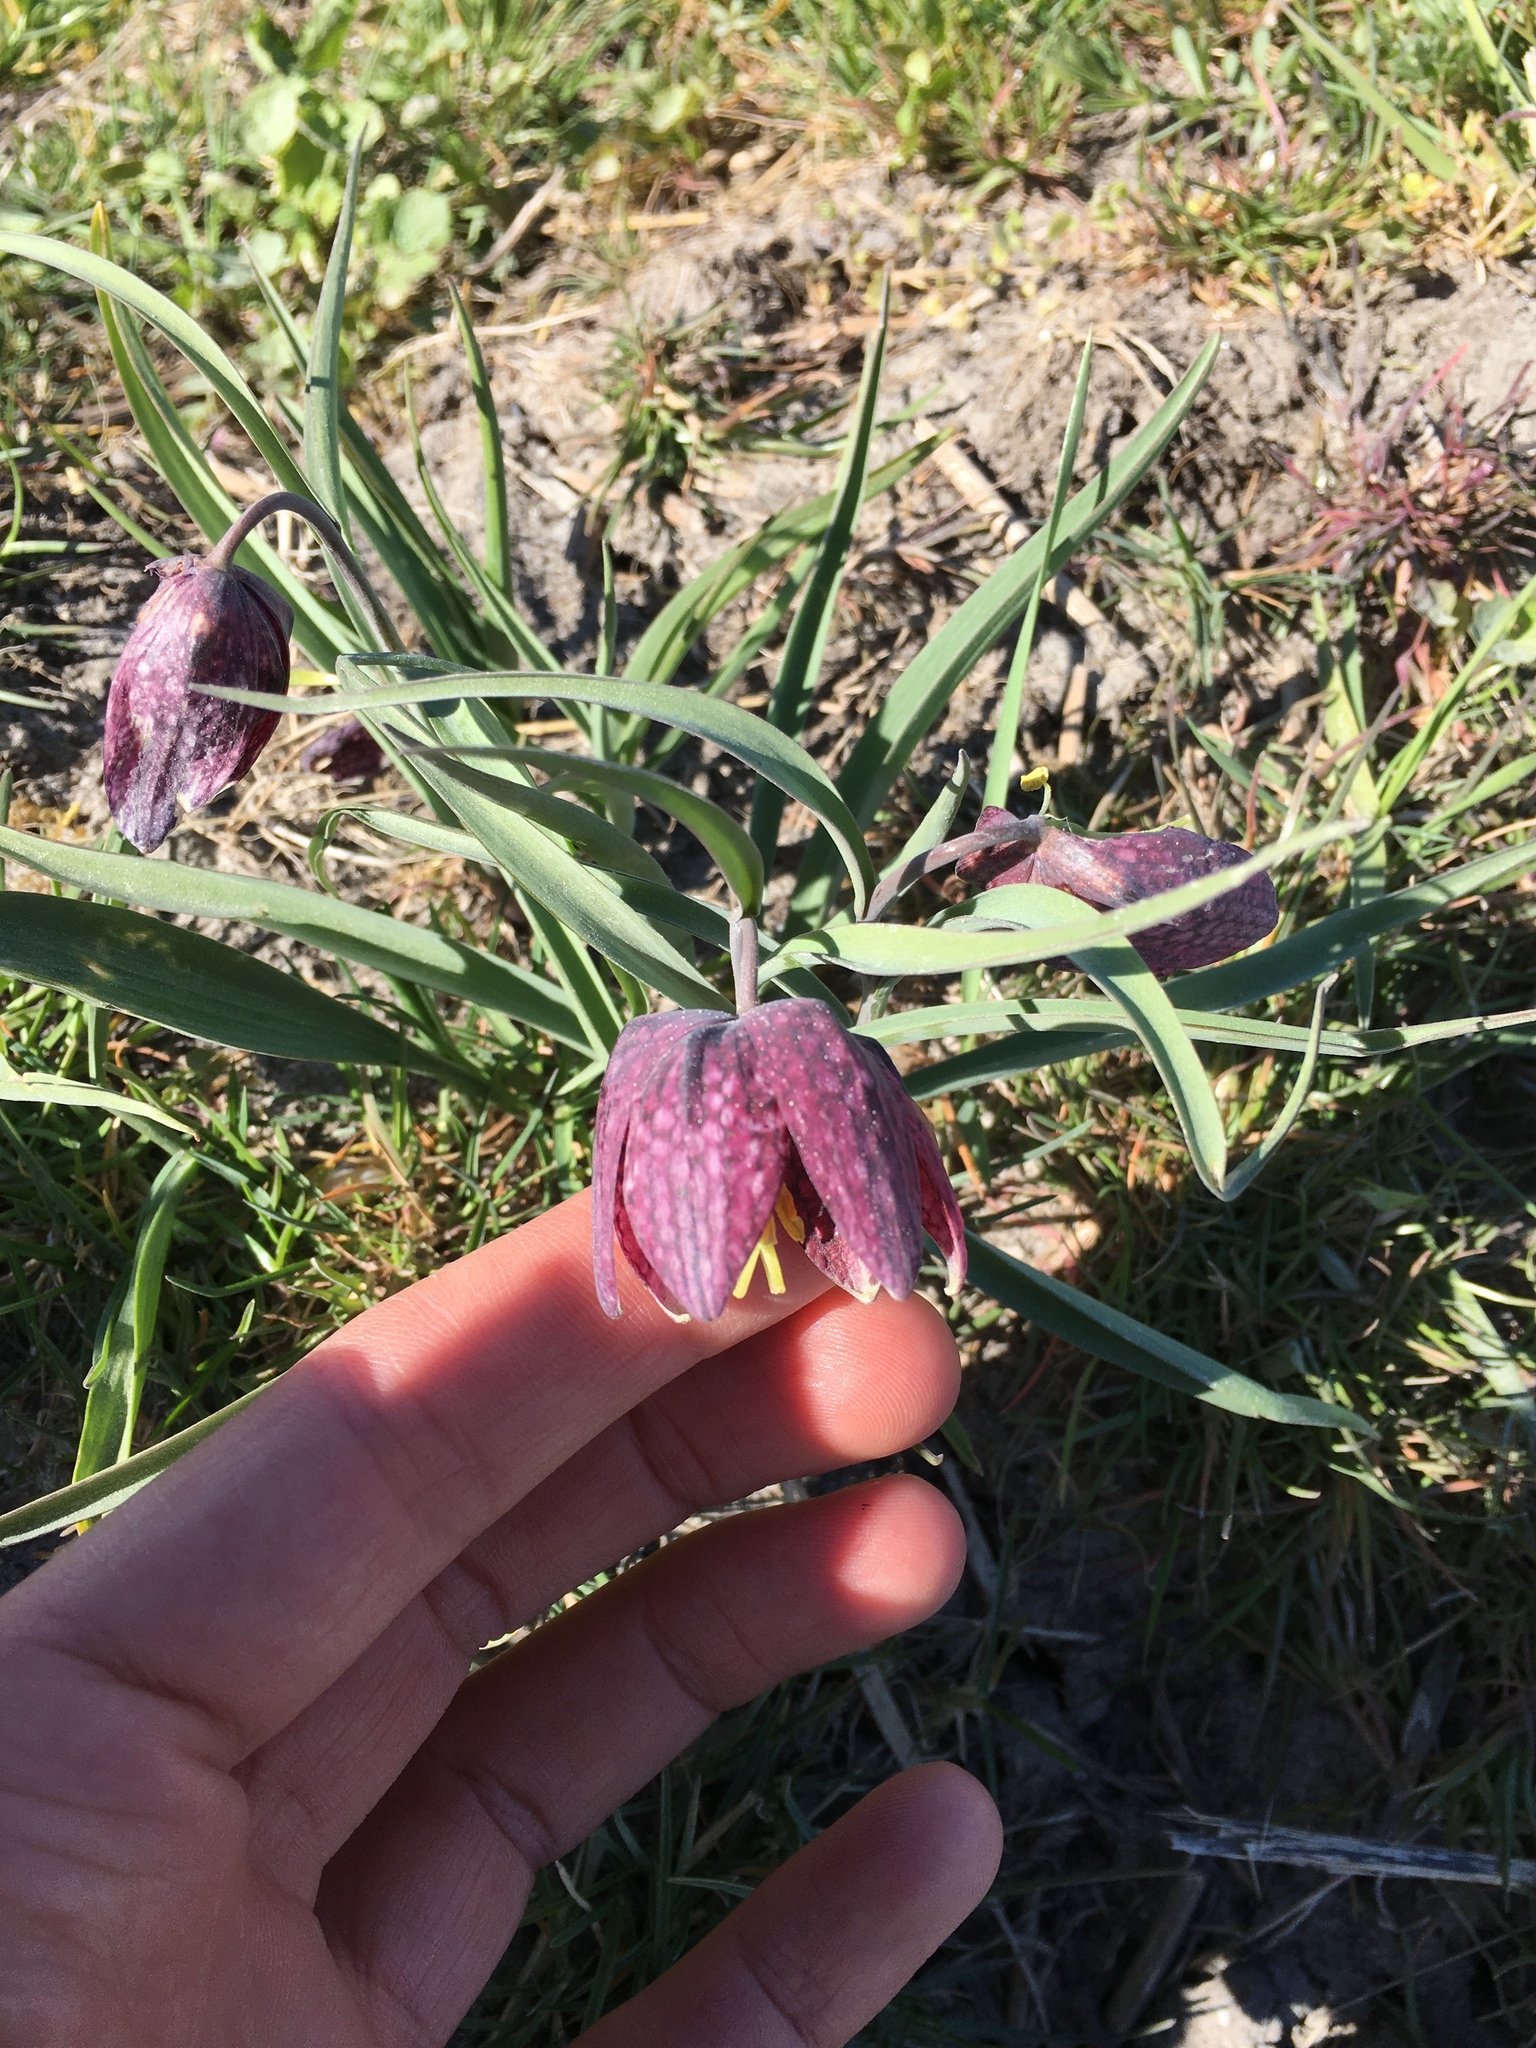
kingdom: Plantae
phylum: Tracheophyta
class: Liliopsida
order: Liliales
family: Liliaceae
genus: Fritillaria
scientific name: Fritillaria meleagris
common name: Fritillary
